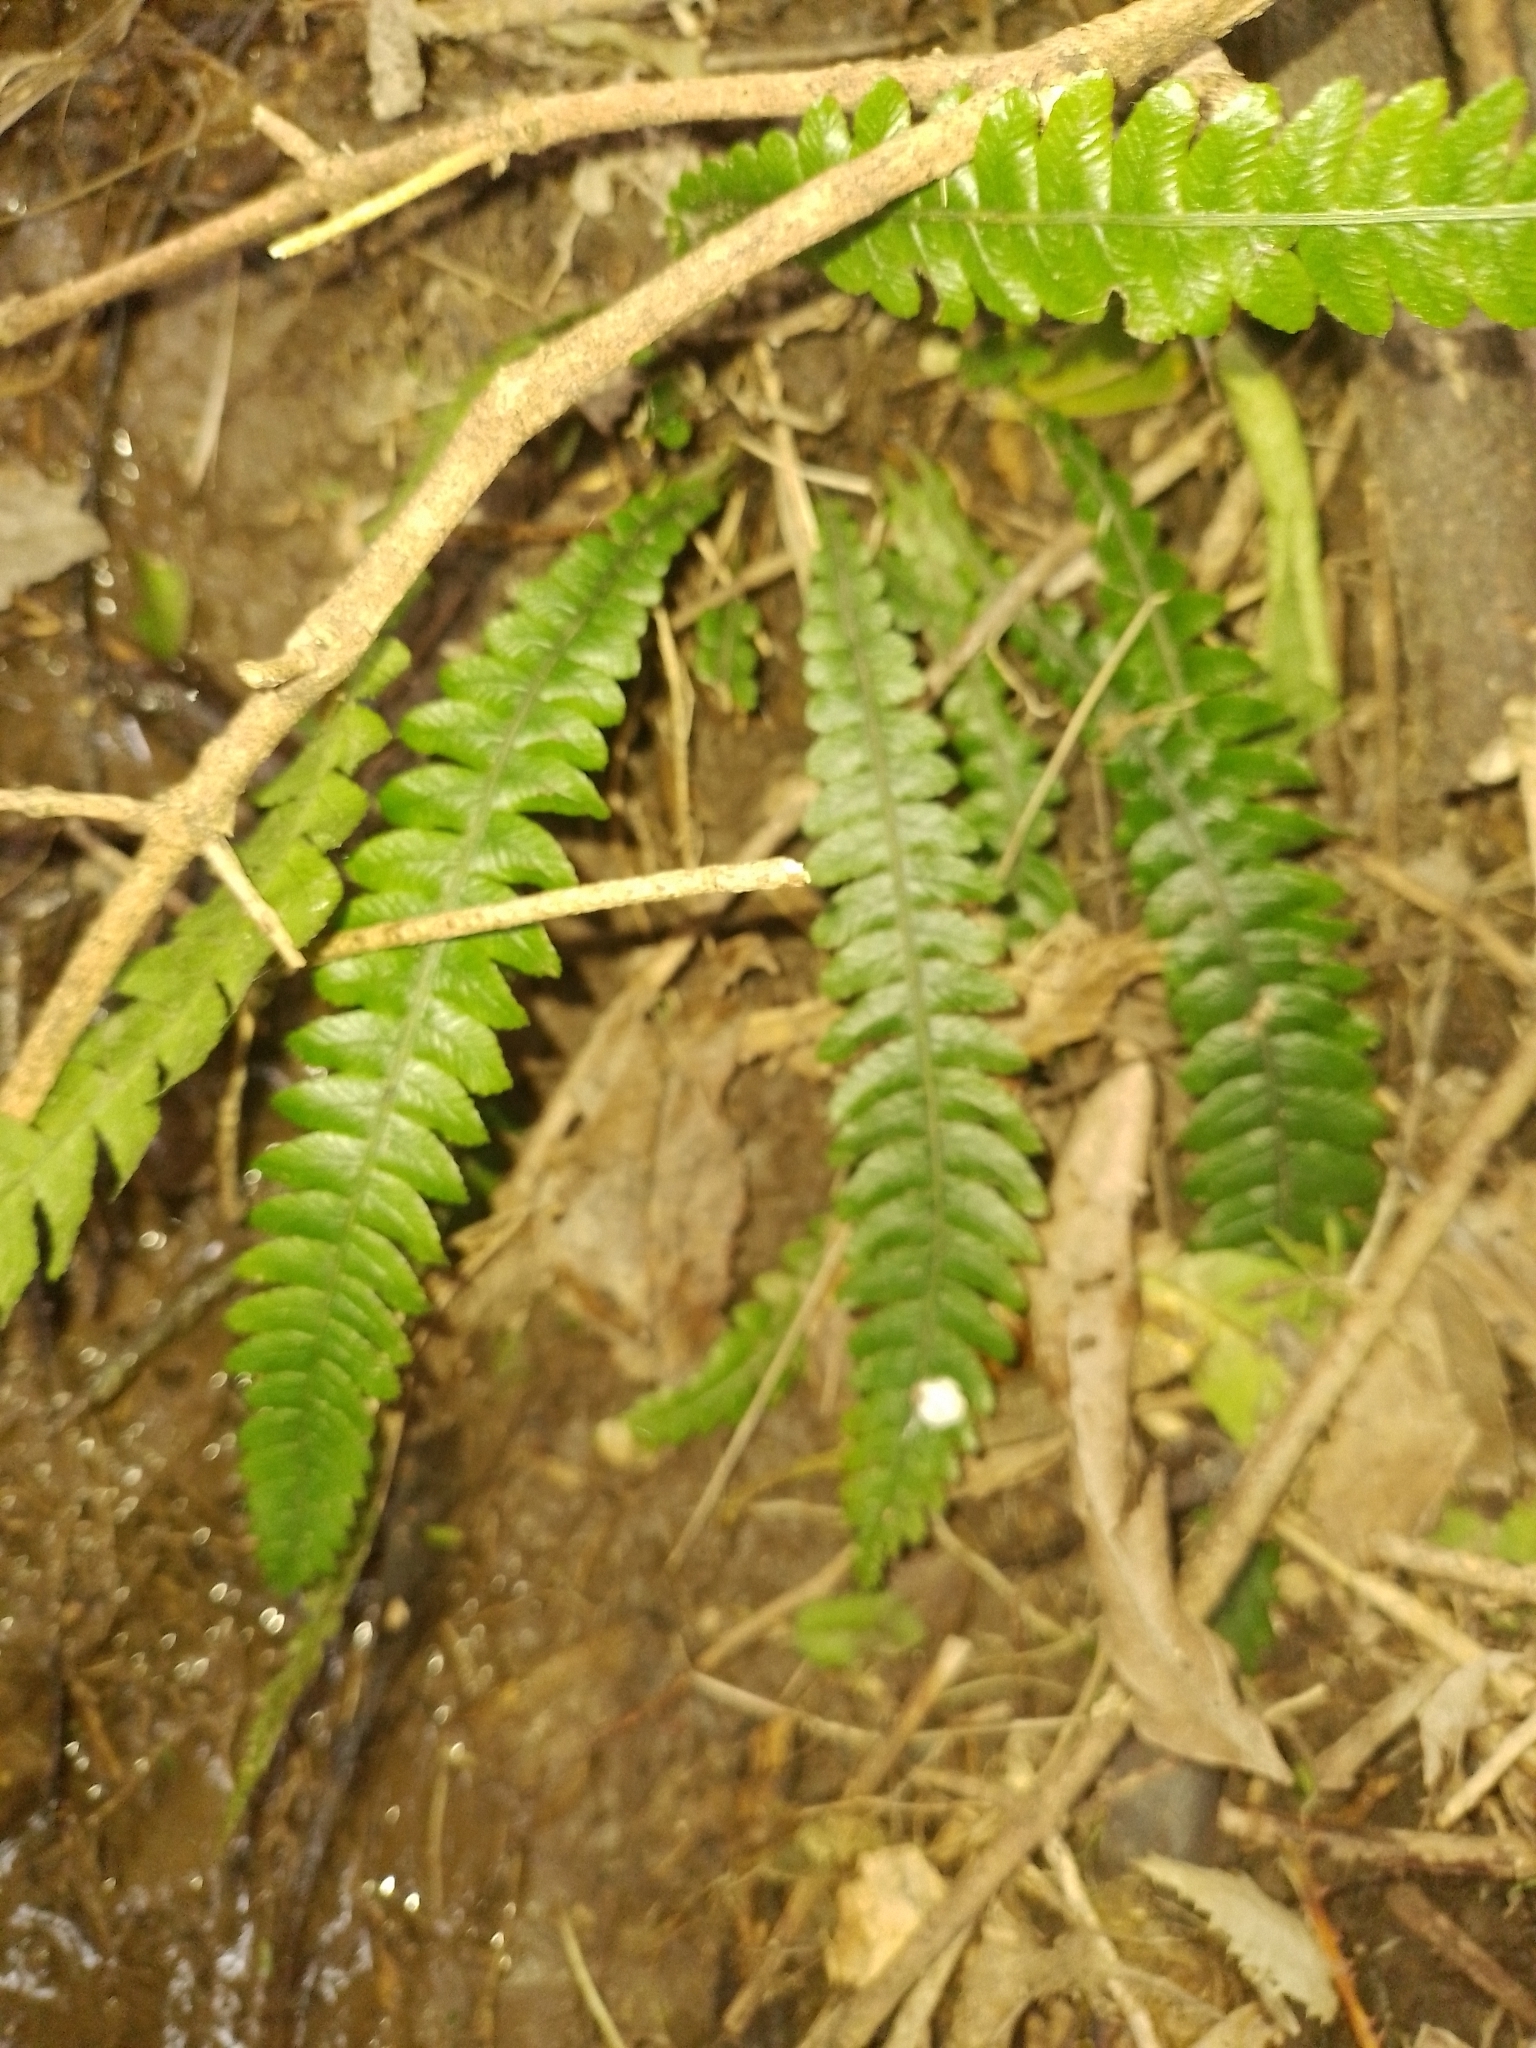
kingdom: Plantae
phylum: Tracheophyta
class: Polypodiopsida
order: Polypodiales
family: Blechnaceae
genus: Austroblechnum
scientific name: Austroblechnum lanceolatum
